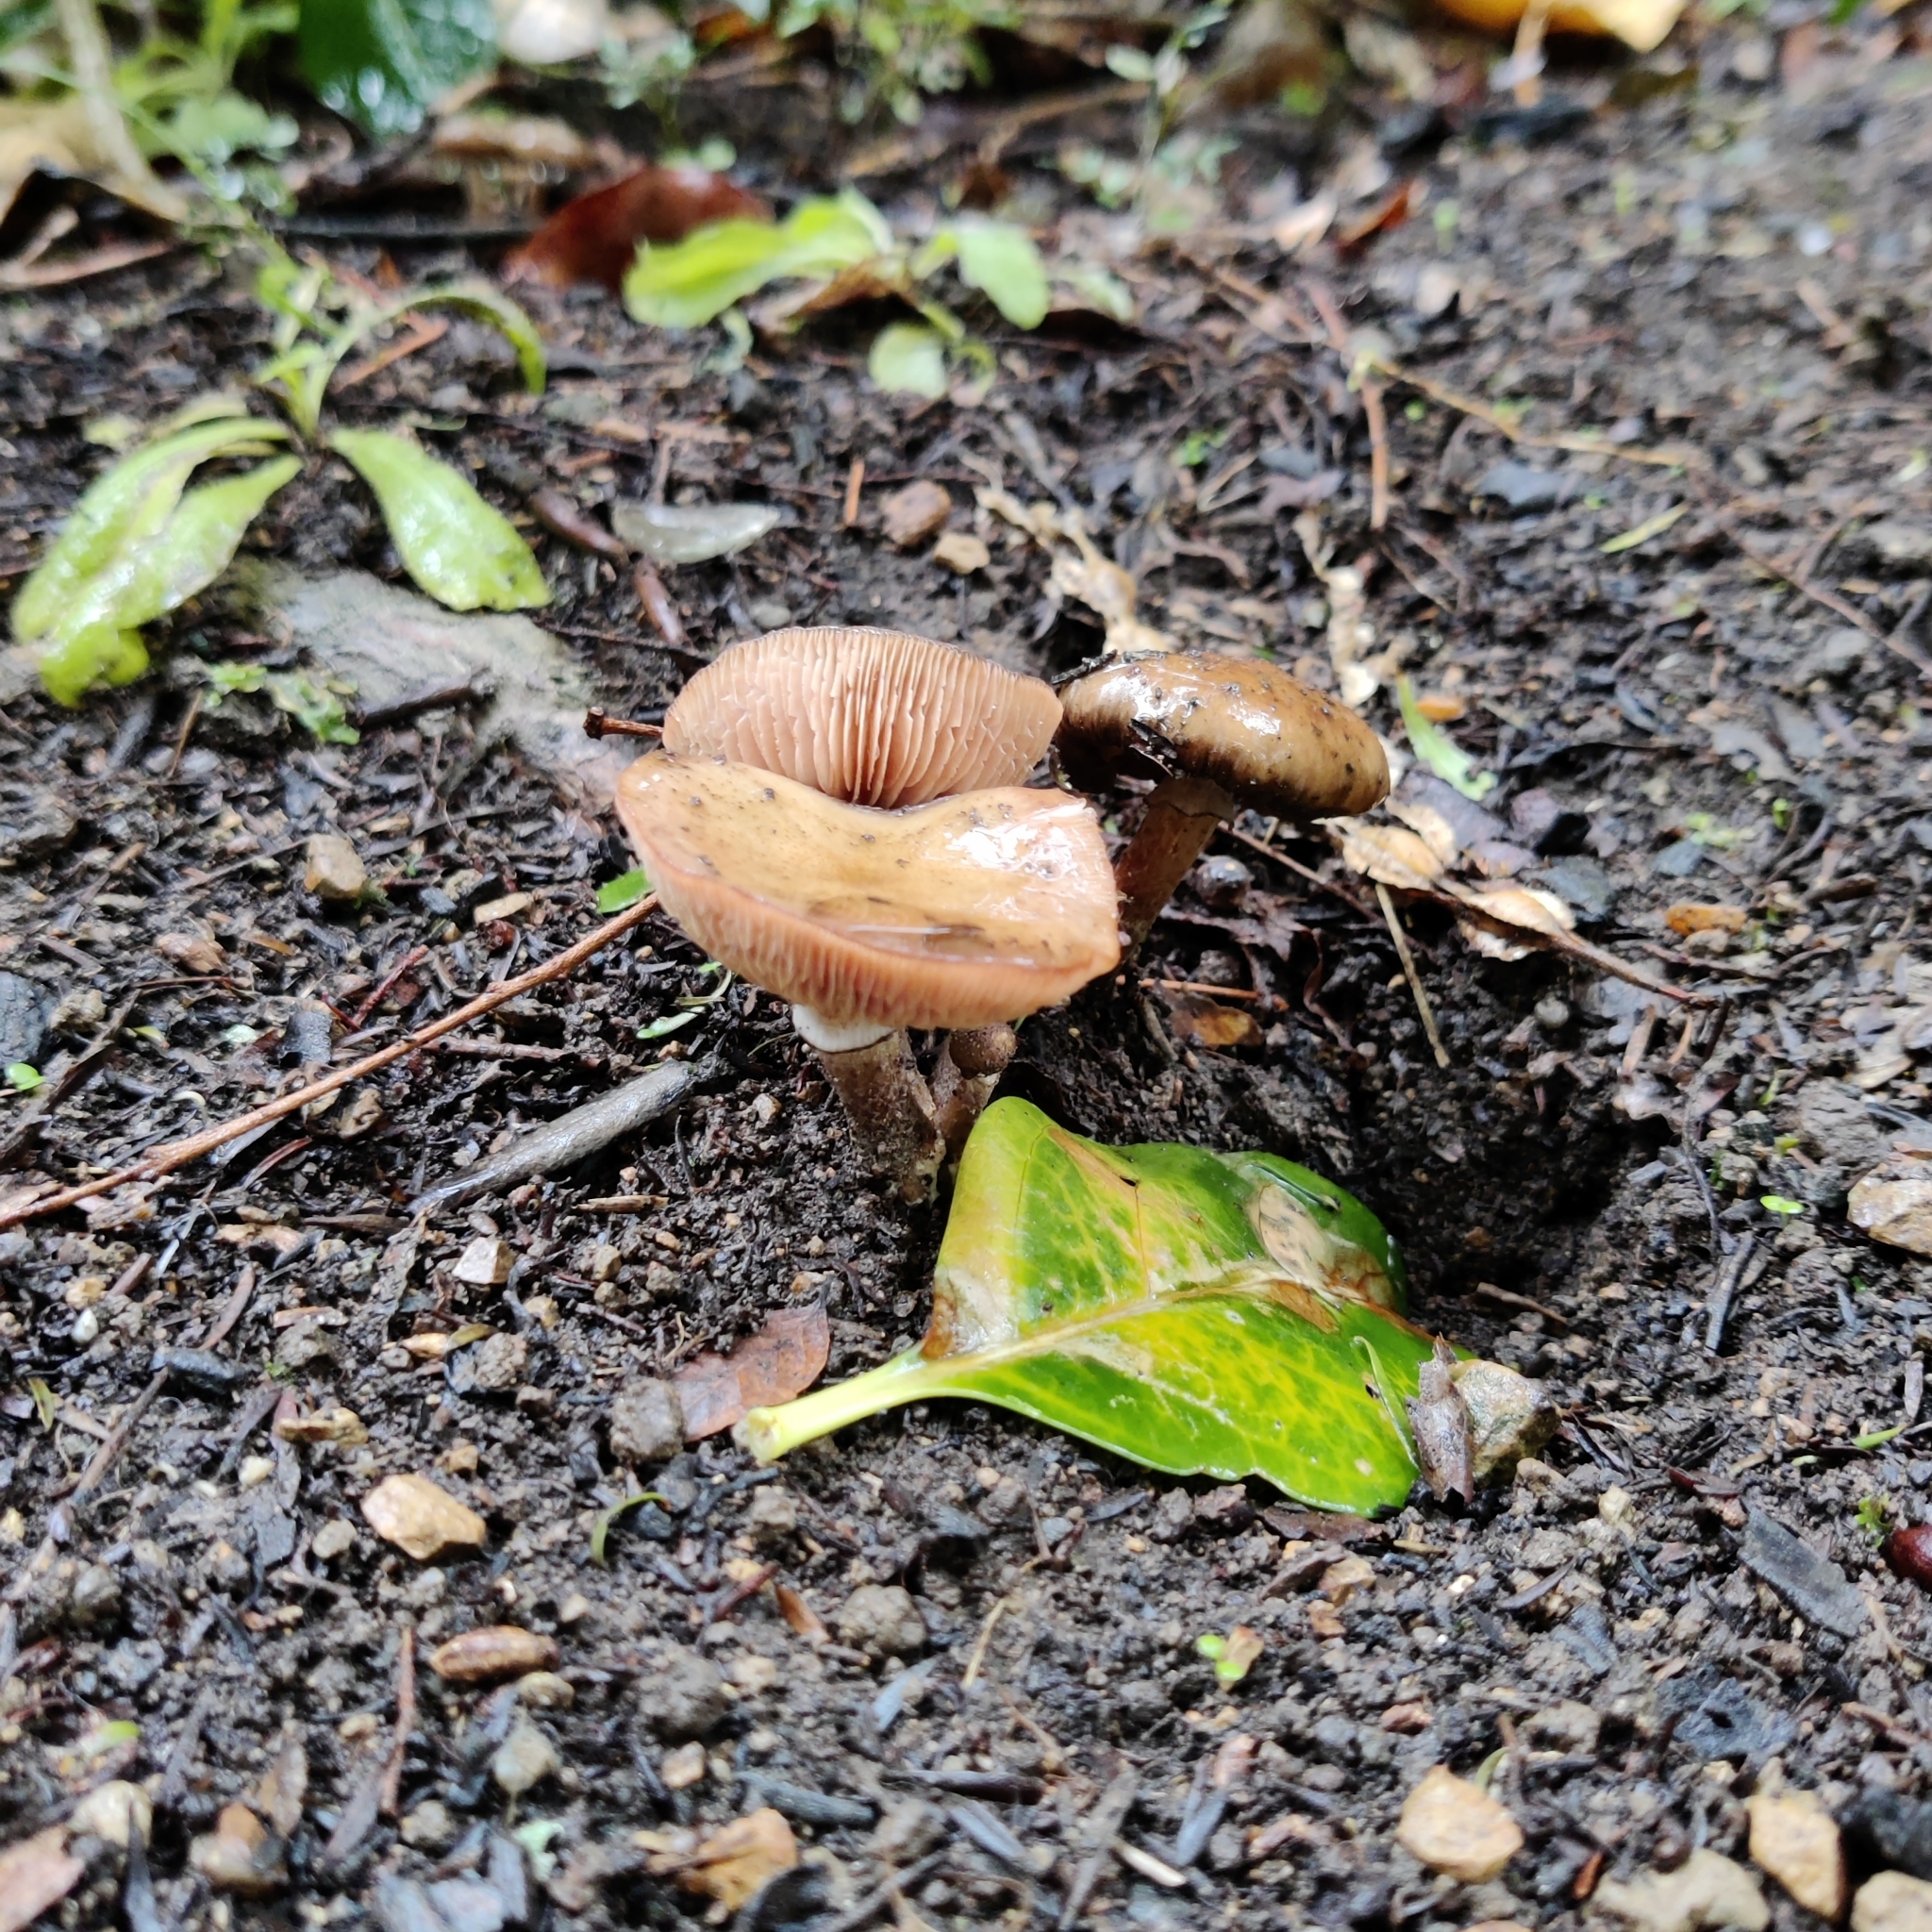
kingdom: Fungi
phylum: Basidiomycota
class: Agaricomycetes
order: Agaricales
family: Physalacriaceae
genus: Armillaria
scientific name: Armillaria novae-zelandiae
